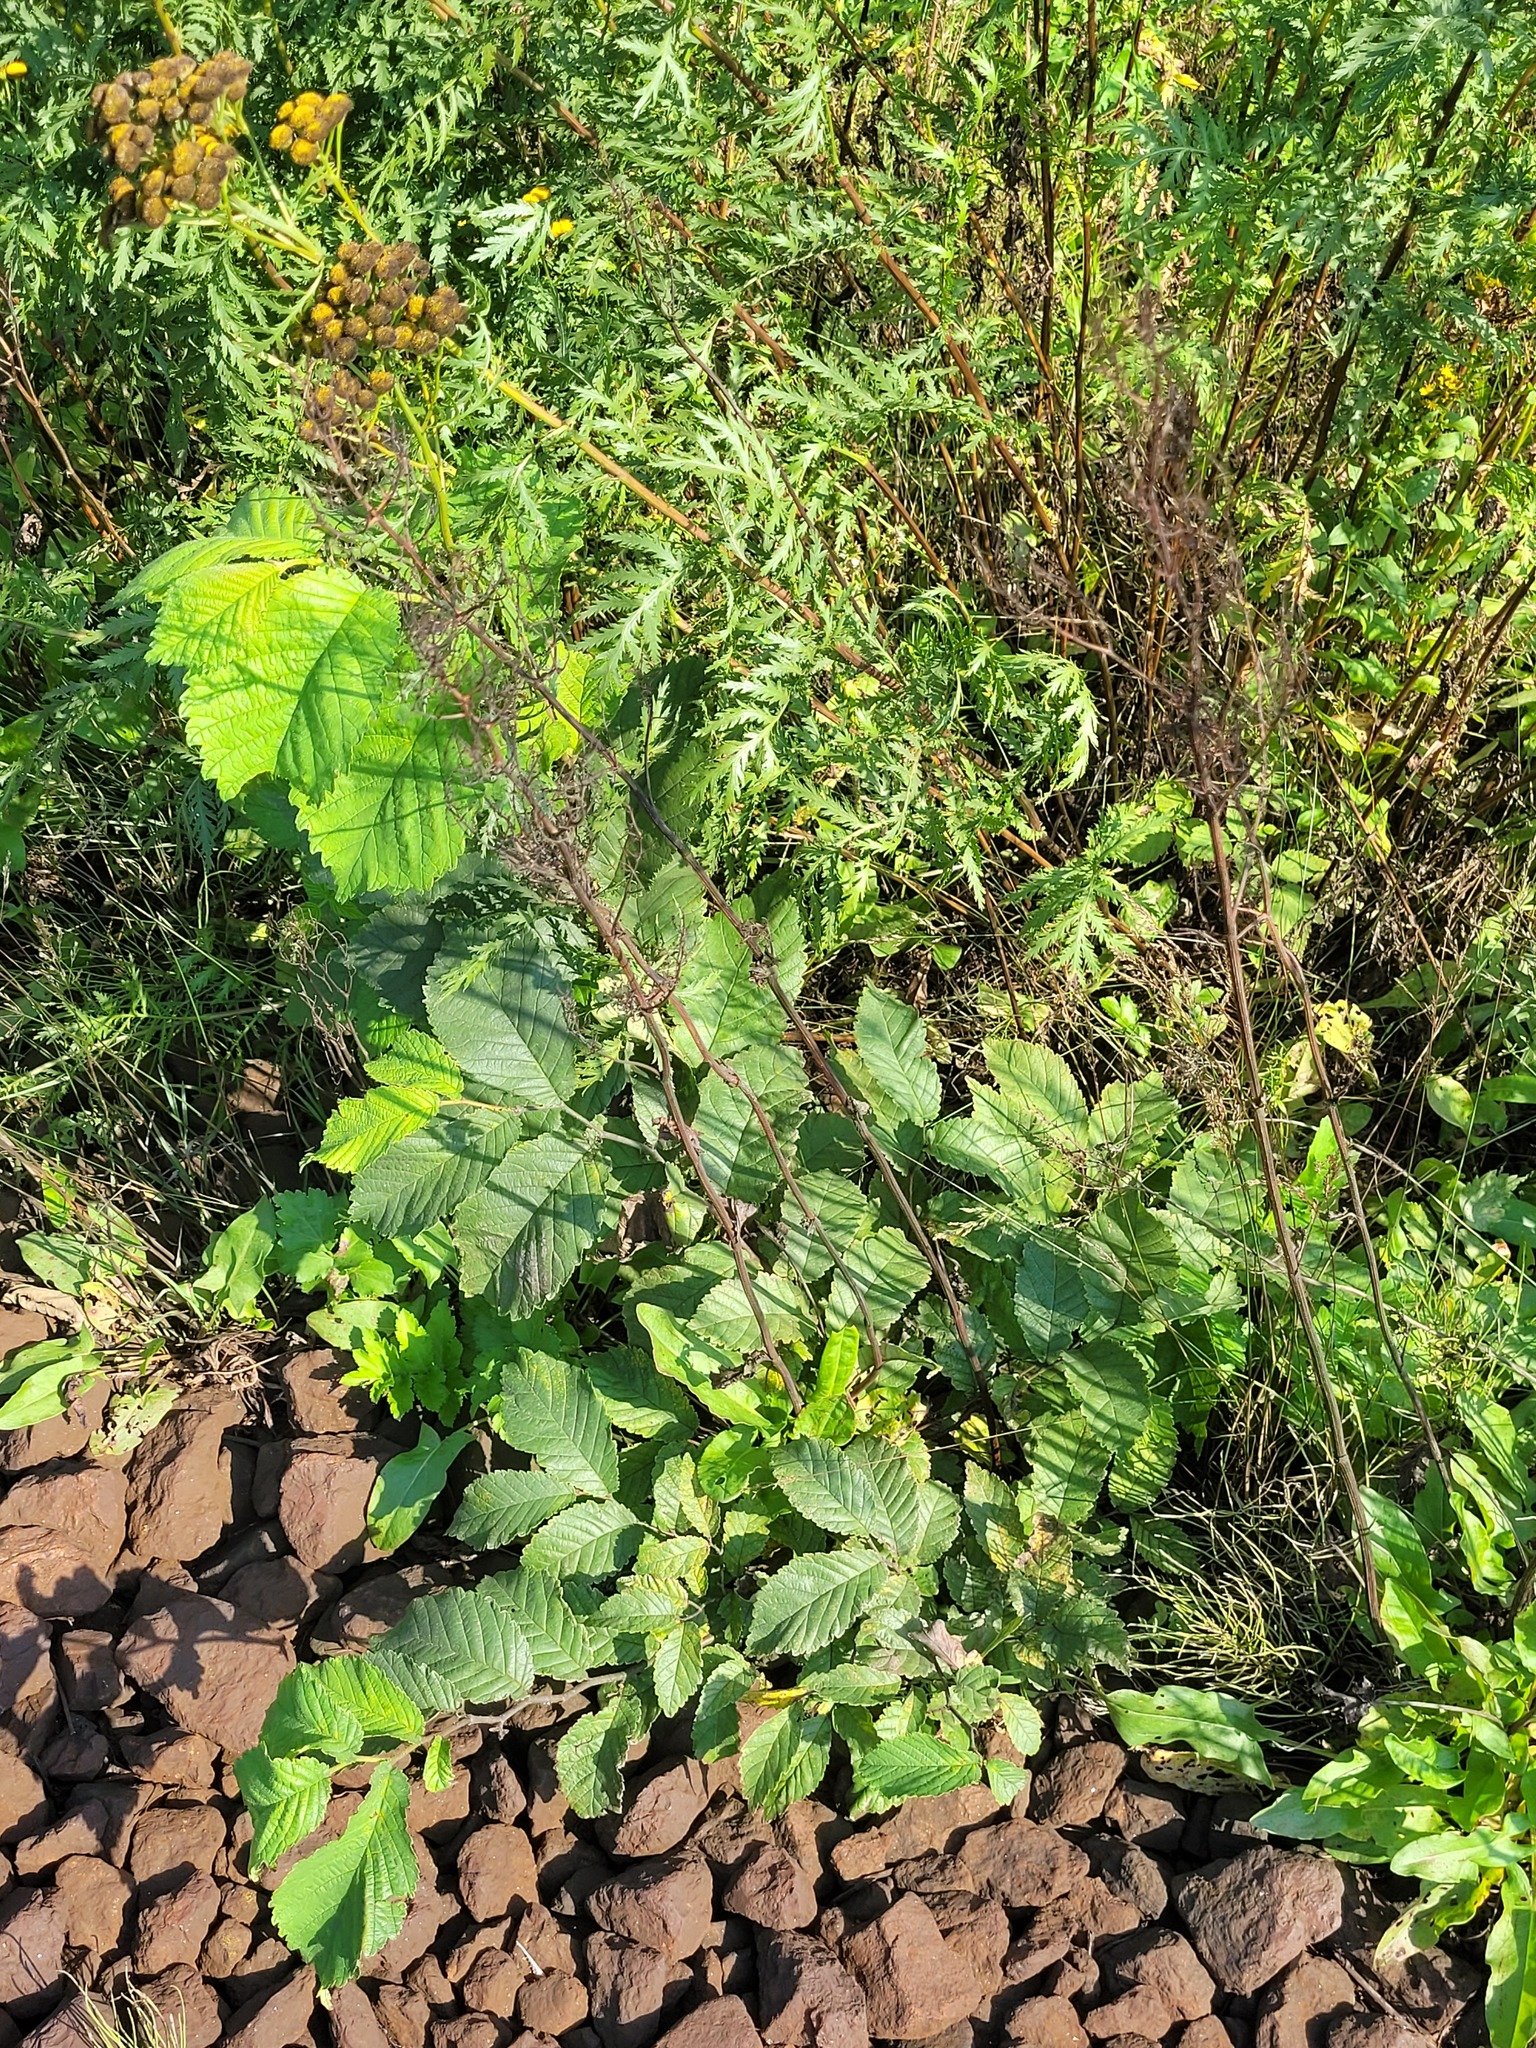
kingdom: Plantae
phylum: Tracheophyta
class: Magnoliopsida
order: Caryophyllales
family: Polygonaceae
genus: Rumex
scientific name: Rumex thyrsiflorus
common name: Garden sorrel
